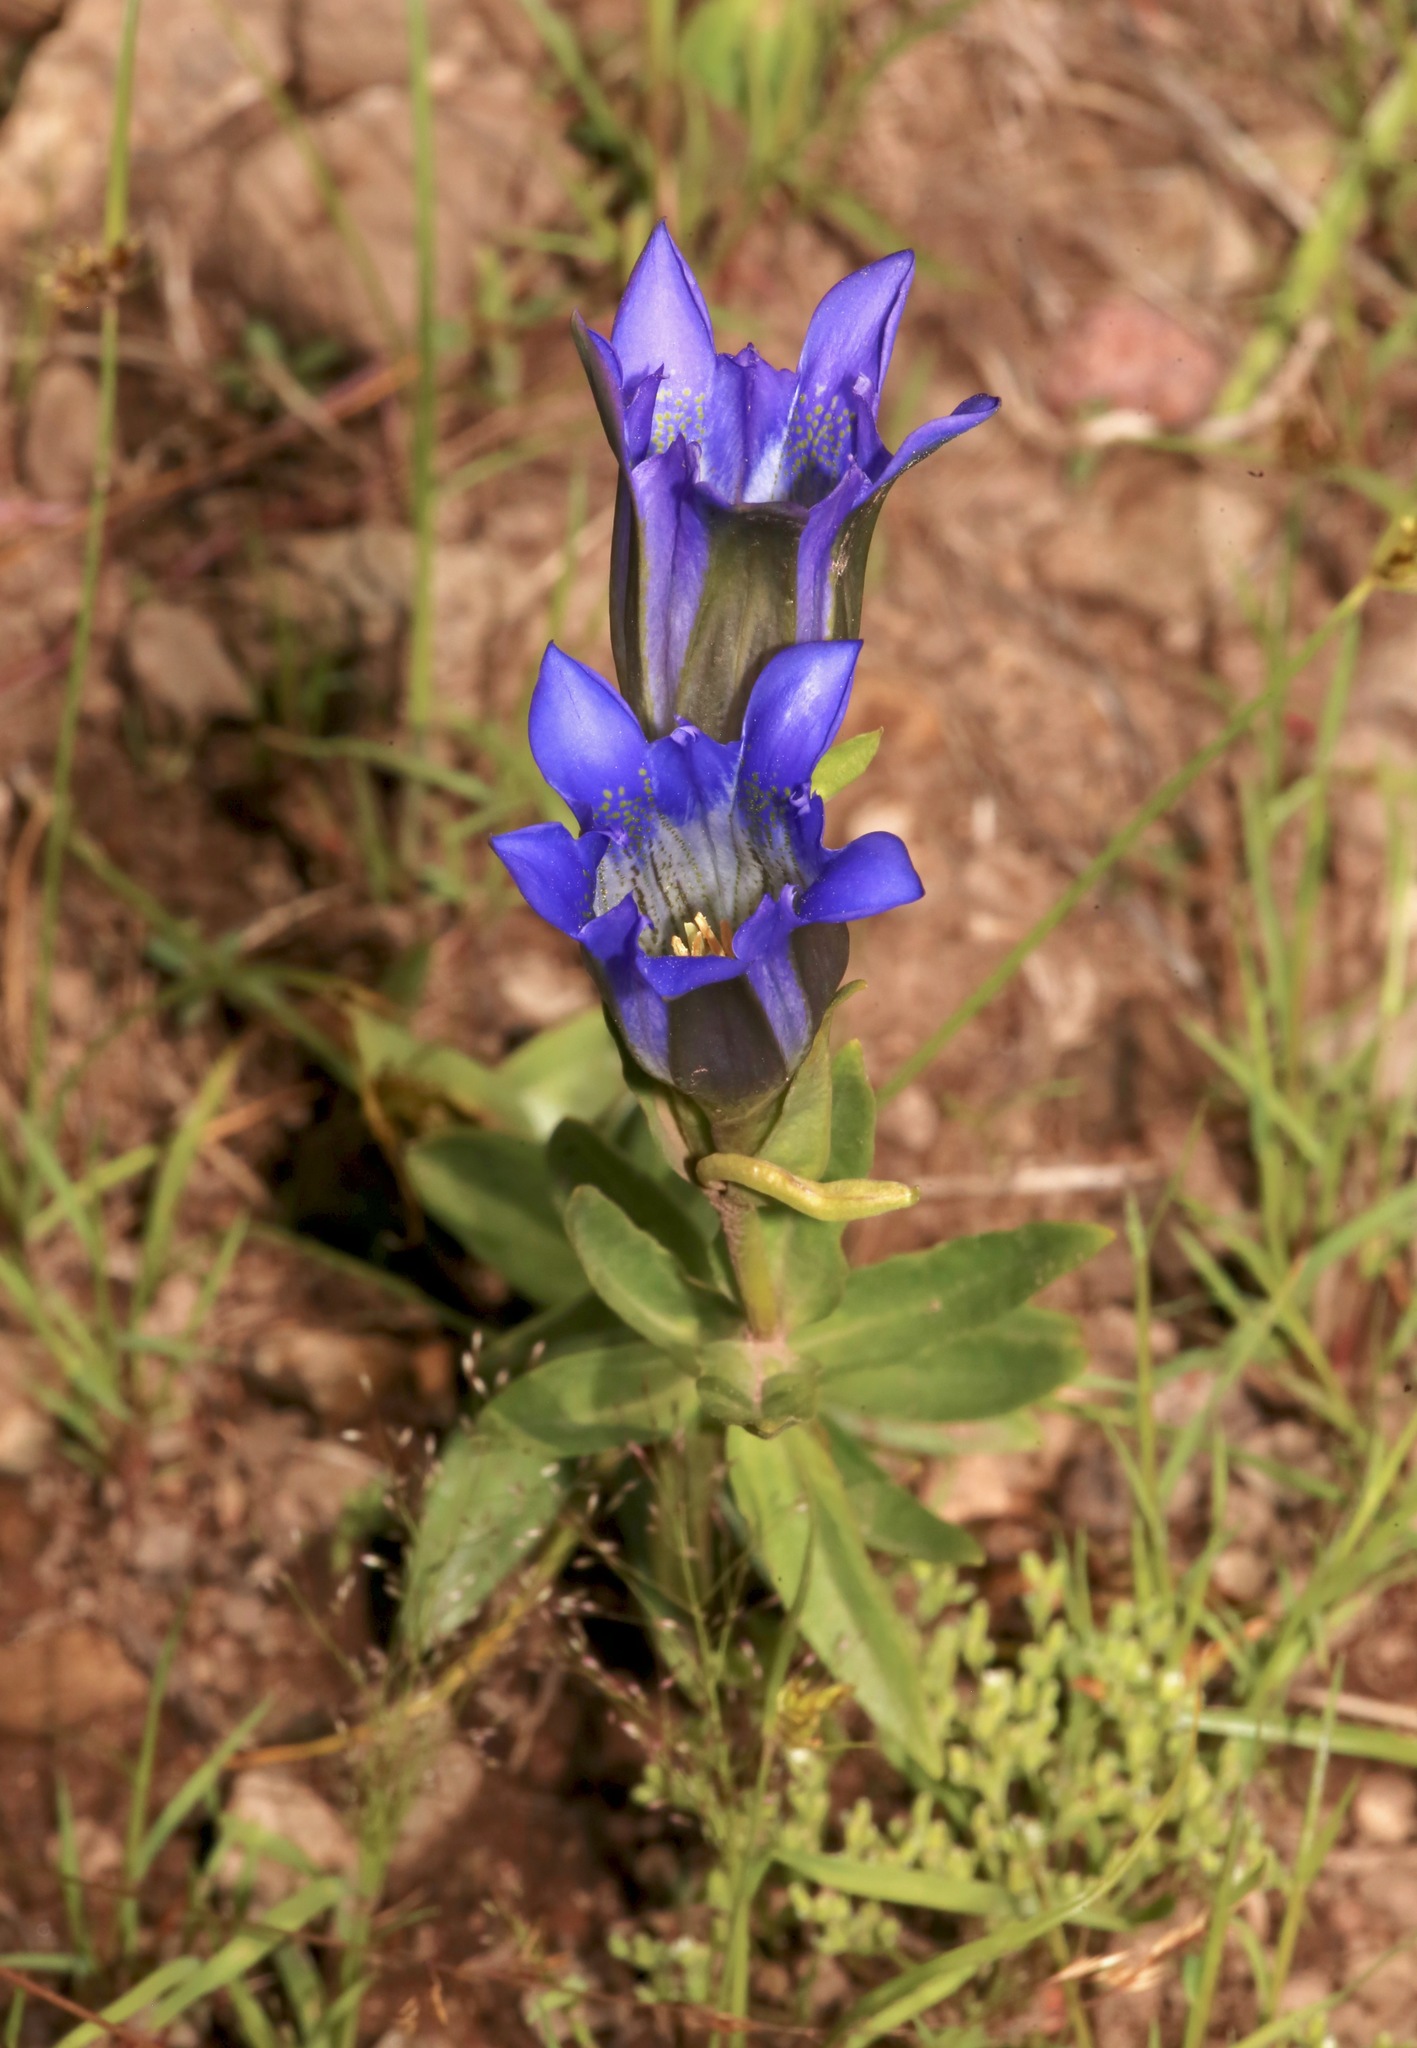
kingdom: Plantae
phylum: Tracheophyta
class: Magnoliopsida
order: Gentianales
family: Gentianaceae
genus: Gentiana
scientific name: Gentiana parryi
